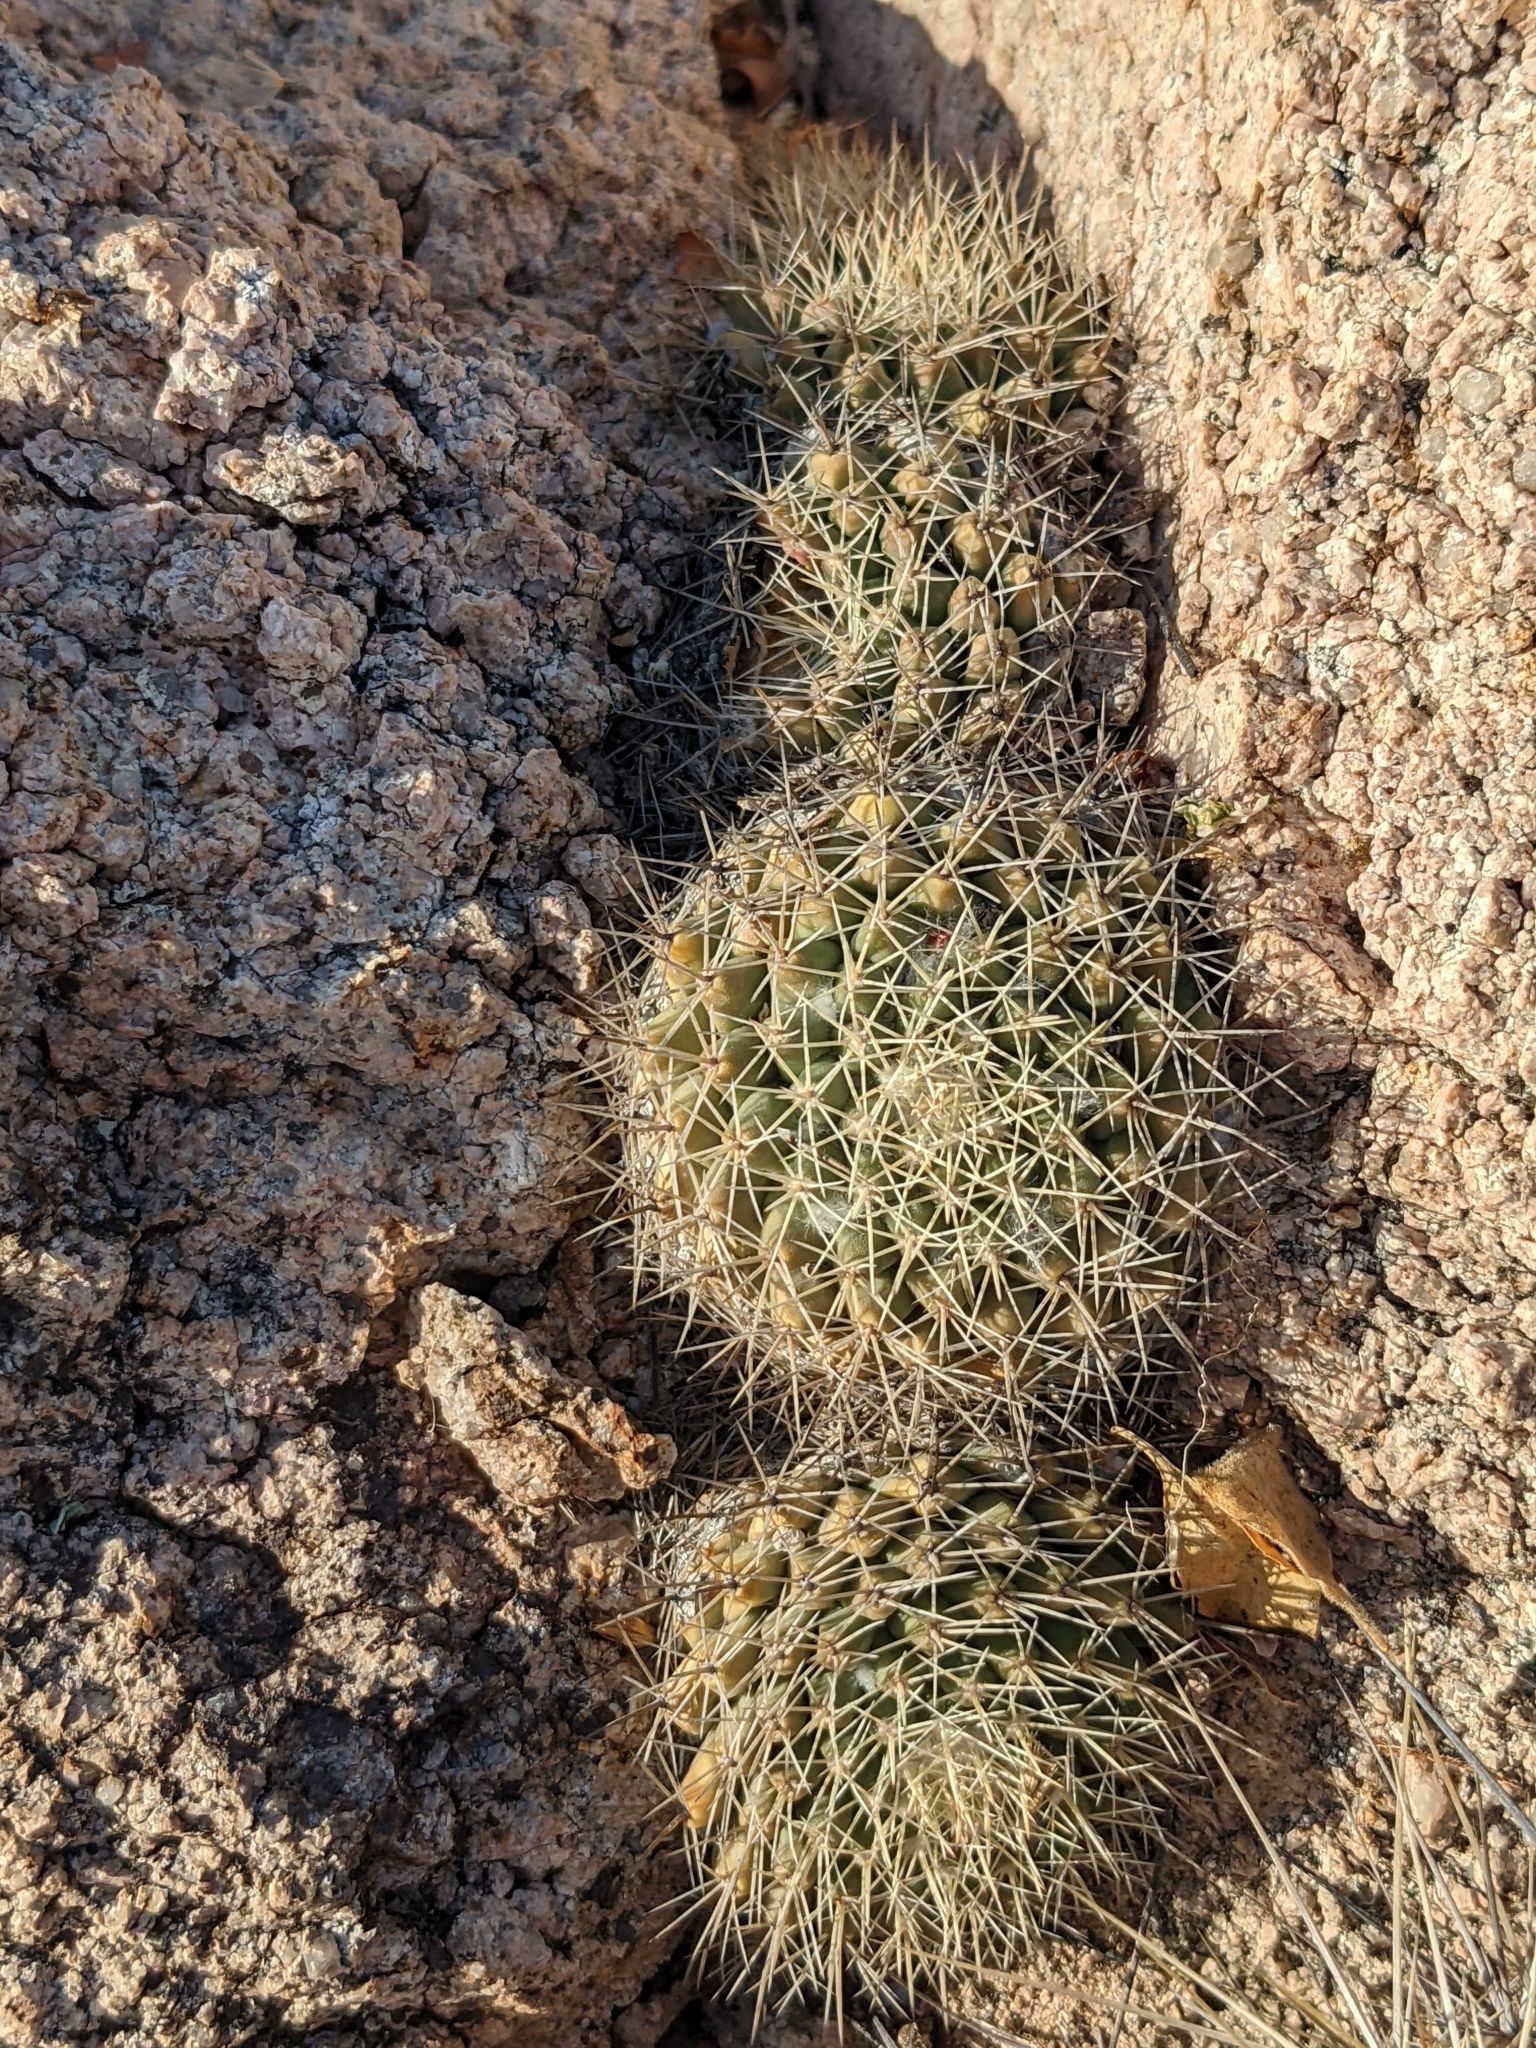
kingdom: Plantae
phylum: Tracheophyta
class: Magnoliopsida
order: Caryophyllales
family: Cactaceae
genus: Mammillaria
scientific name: Mammillaria petrophila
